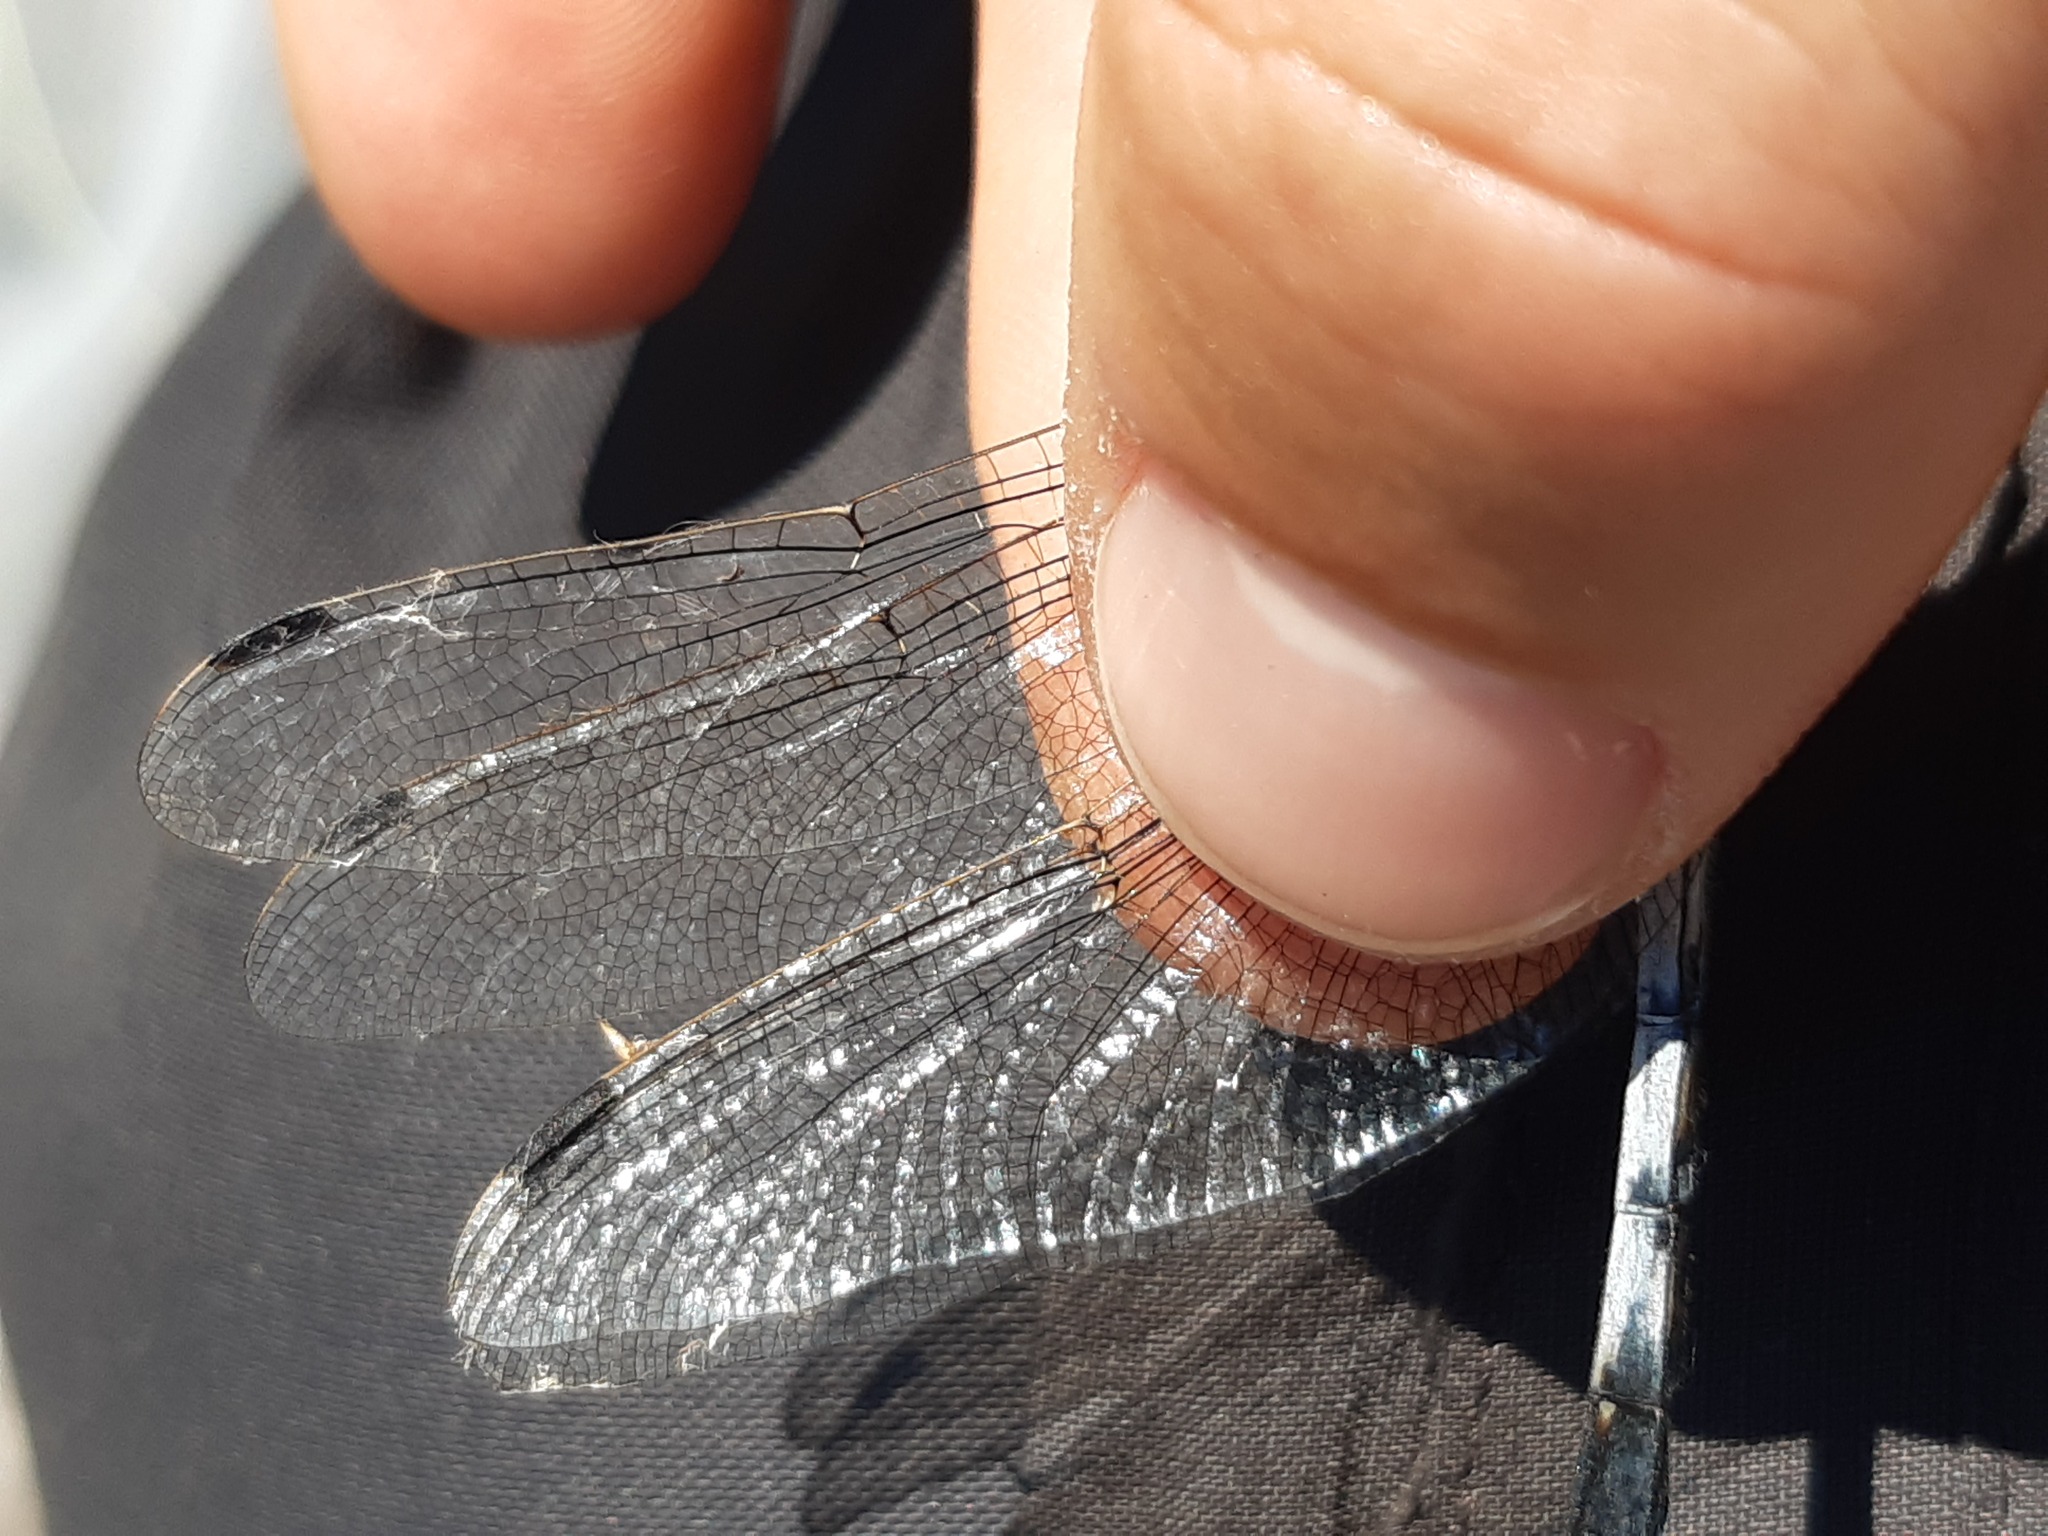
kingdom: Animalia
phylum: Arthropoda
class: Insecta
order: Odonata
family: Libellulidae
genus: Orthetrum
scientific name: Orthetrum albistylum
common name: White-tailed skimmer
